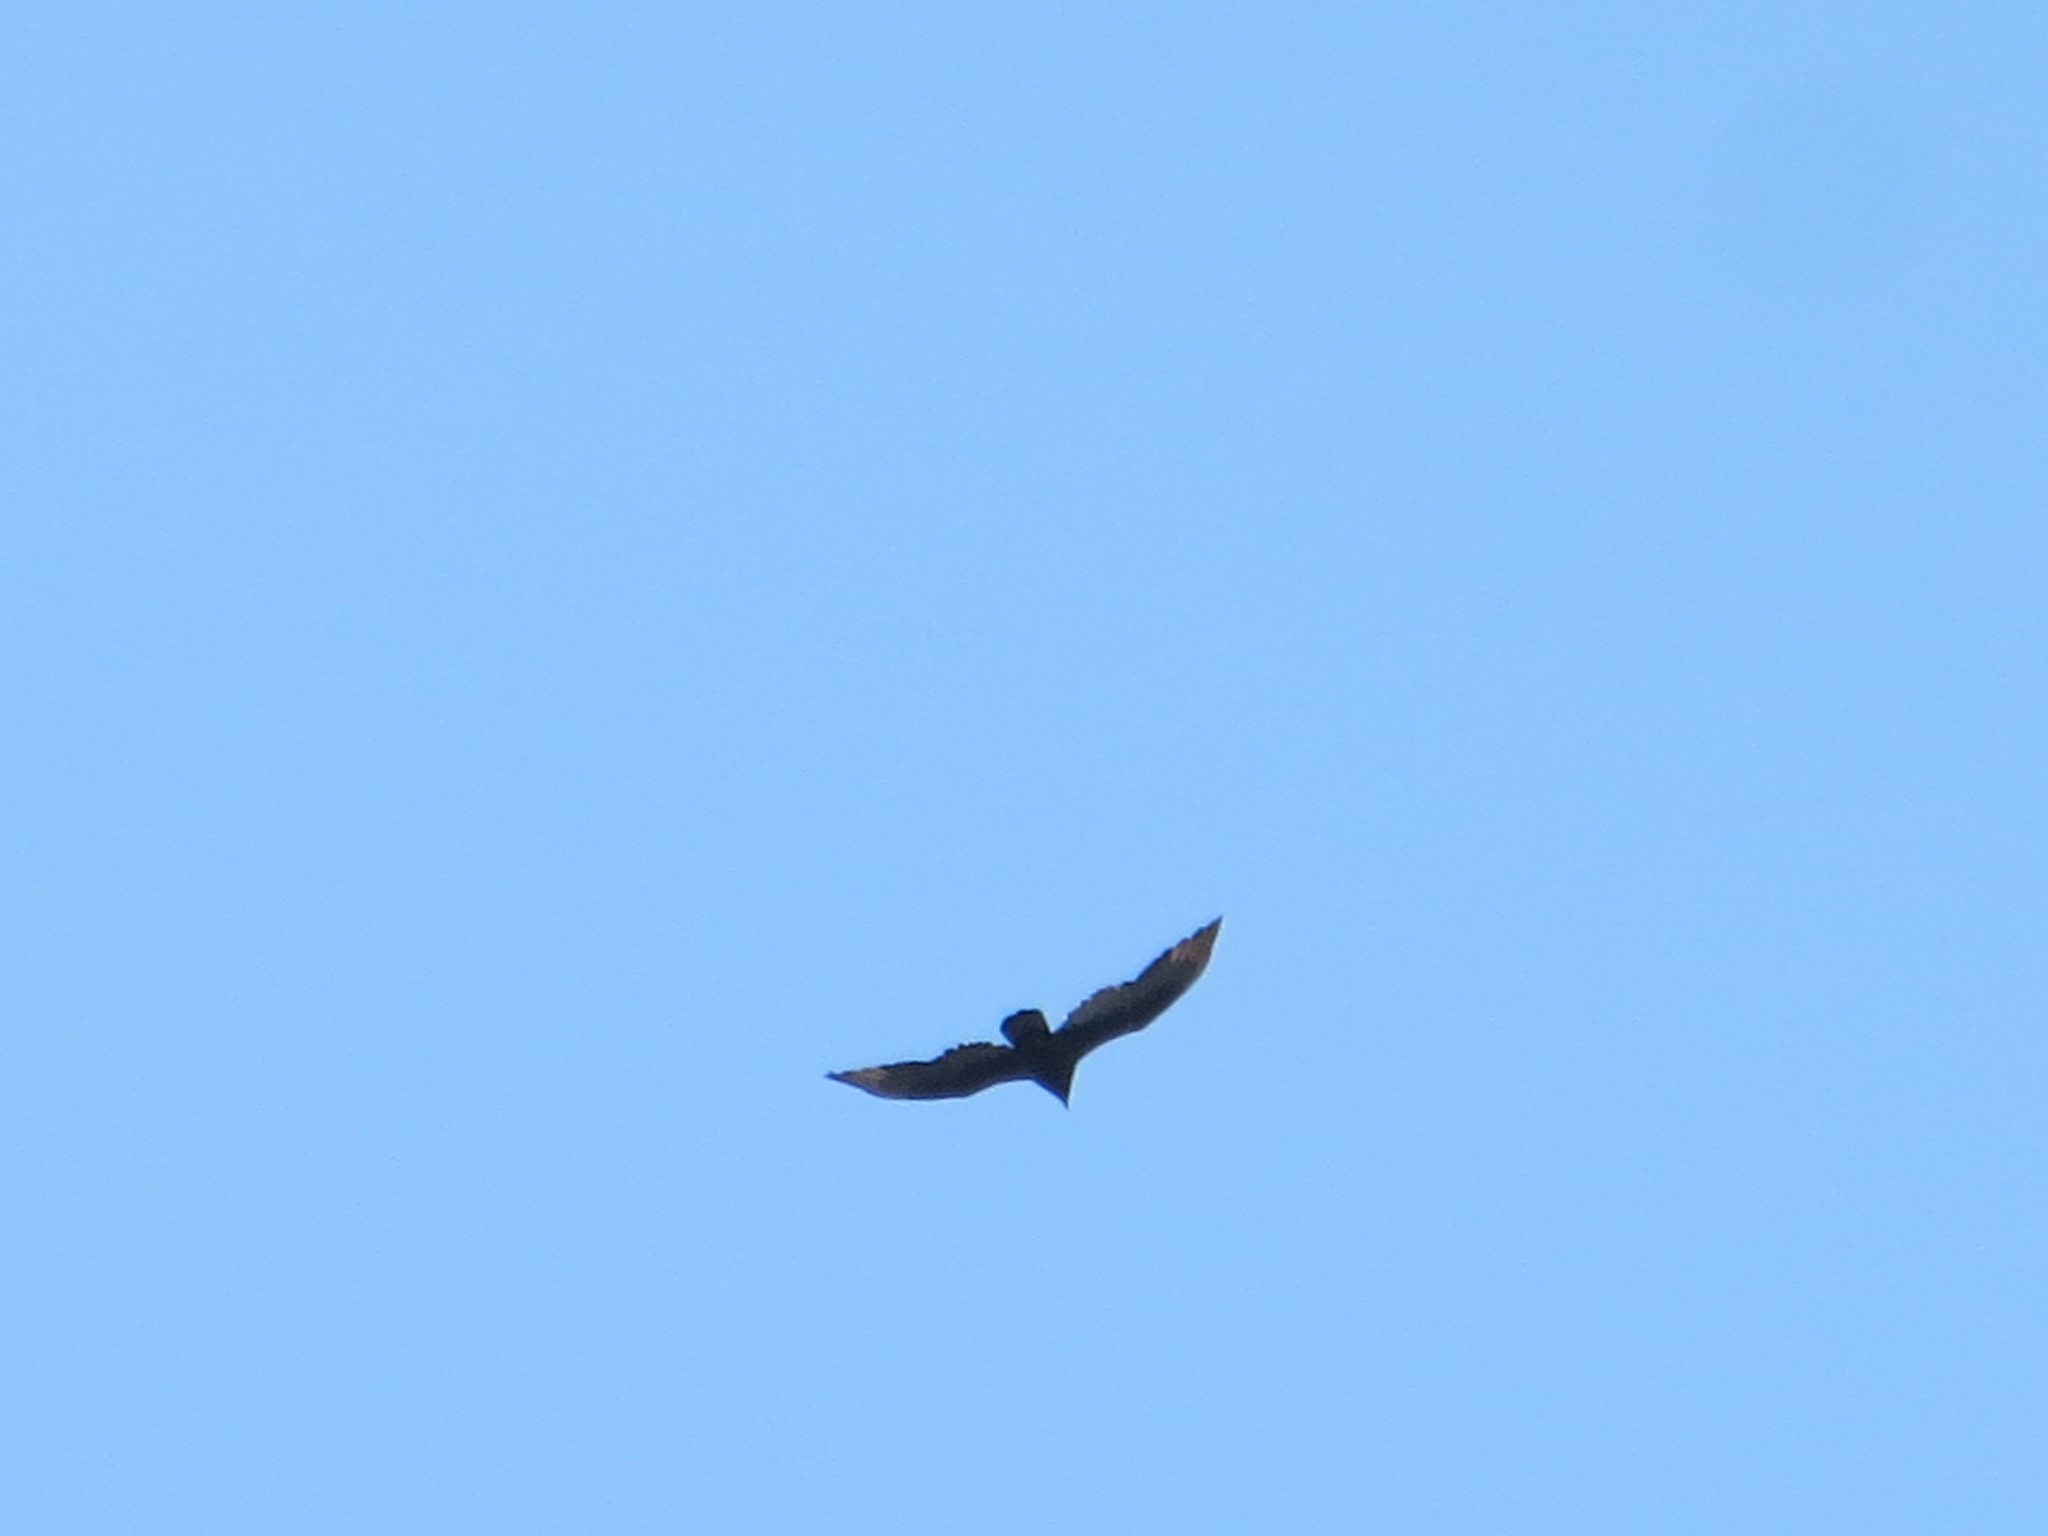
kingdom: Animalia
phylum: Chordata
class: Aves
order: Accipitriformes
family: Cathartidae
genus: Cathartes
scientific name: Cathartes aura
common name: Turkey vulture
